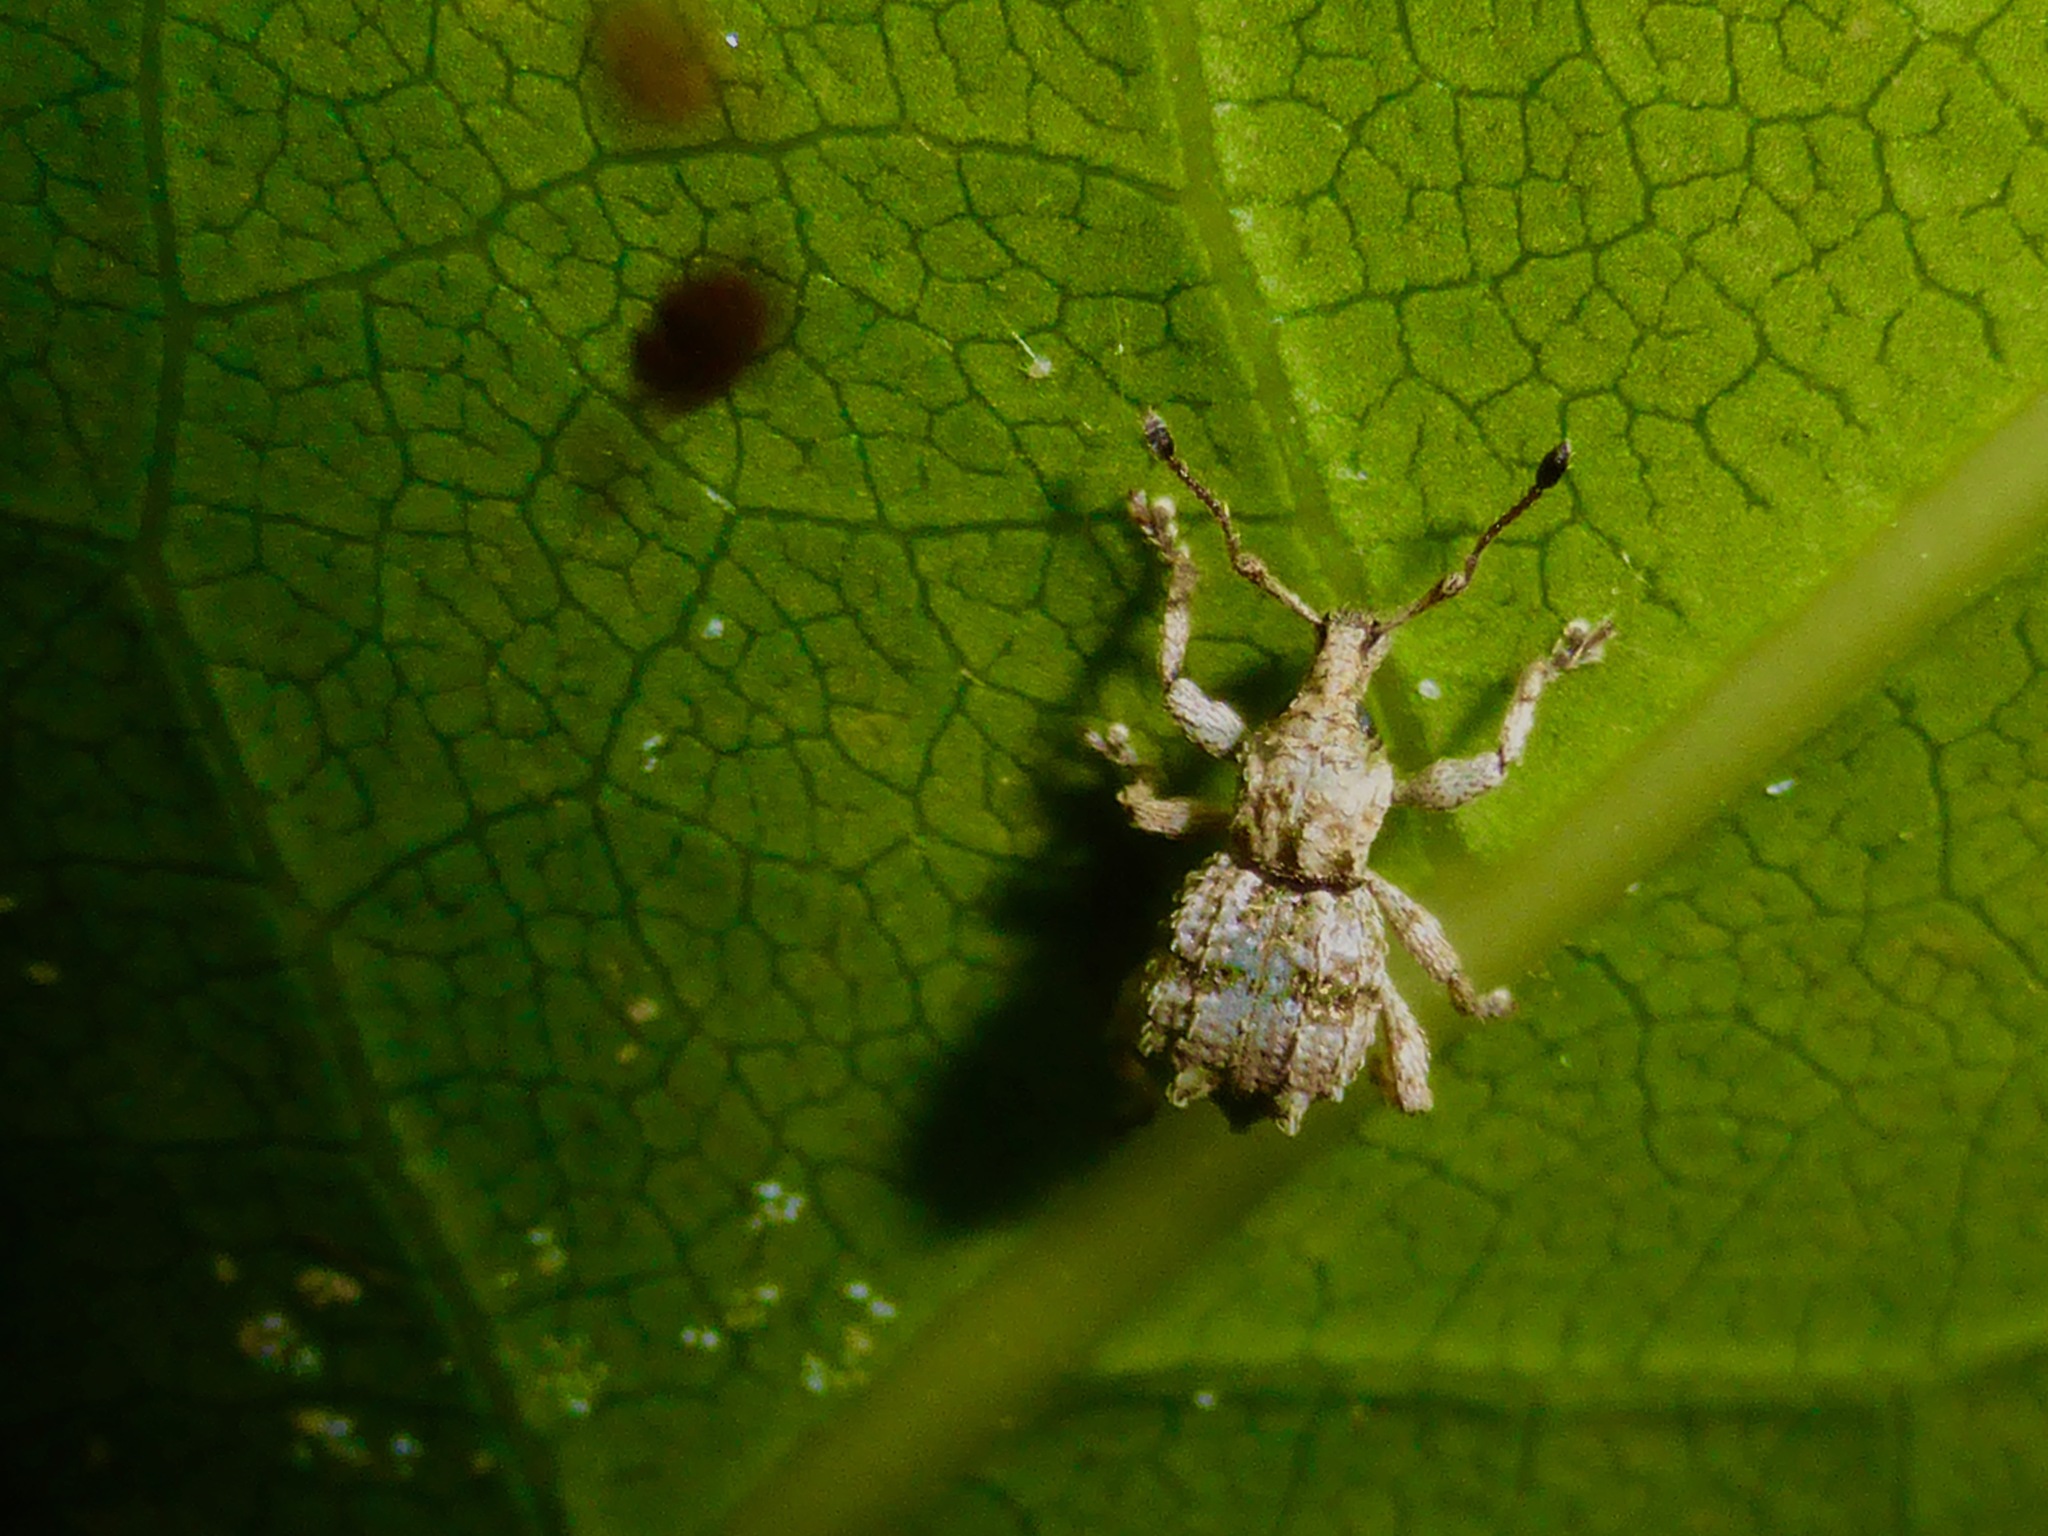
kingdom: Animalia
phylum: Arthropoda
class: Insecta
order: Coleoptera
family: Curculionidae
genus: Brachyolus
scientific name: Brachyolus punctatus
